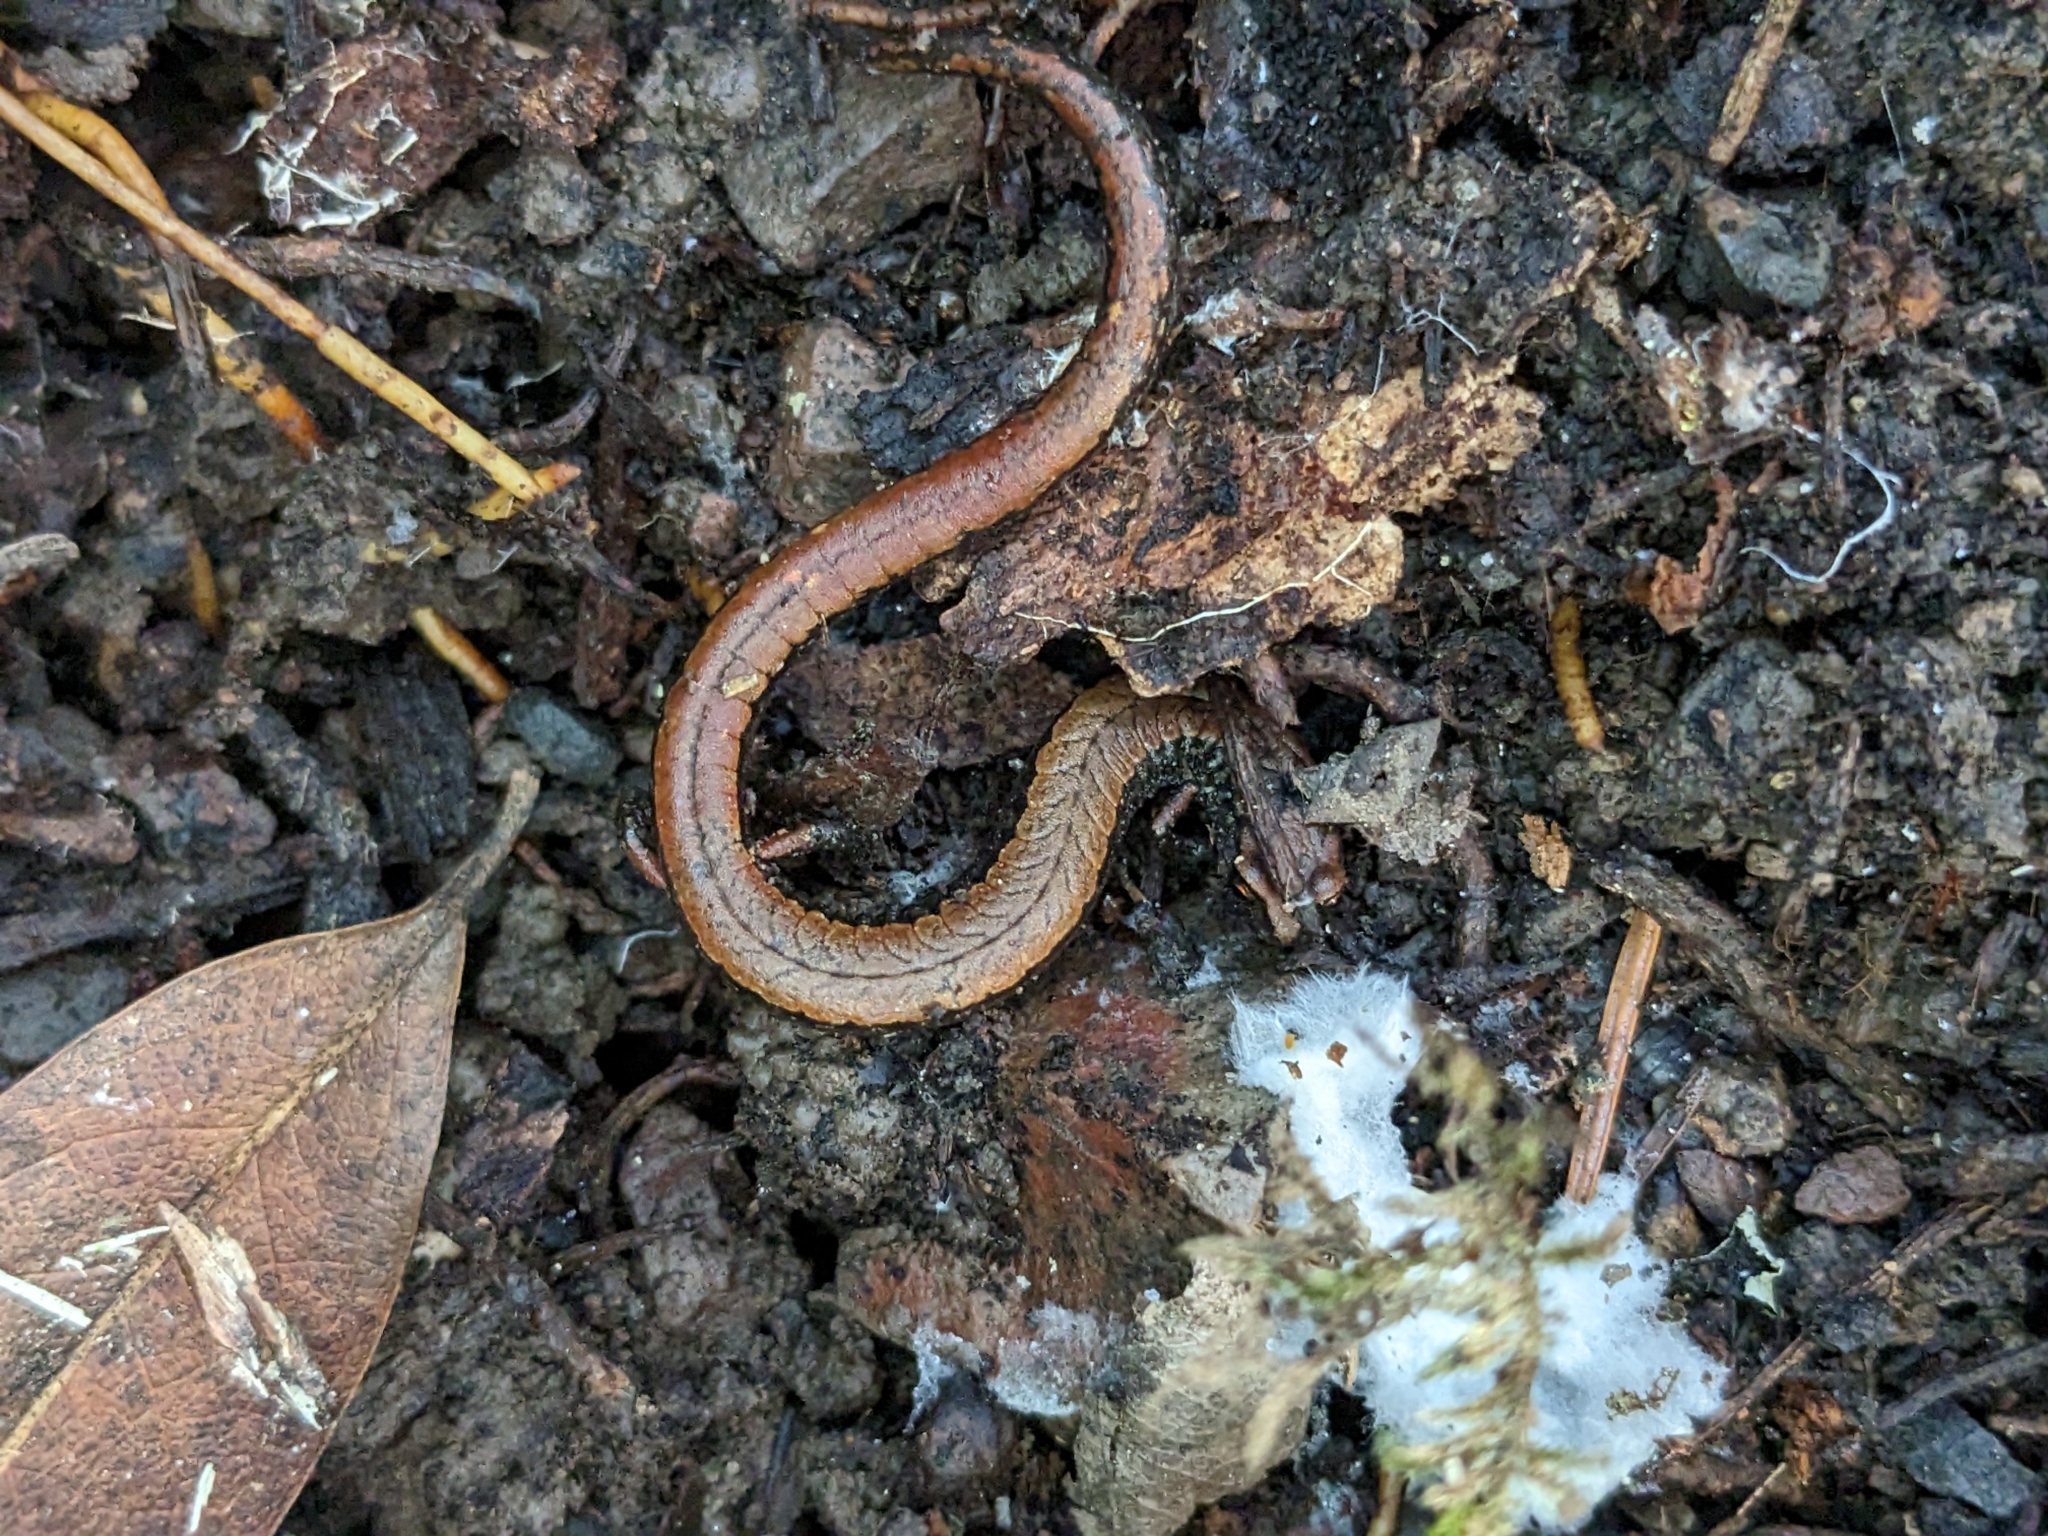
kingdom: Animalia
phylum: Chordata
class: Amphibia
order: Caudata
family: Plethodontidae
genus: Batrachoseps
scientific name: Batrachoseps attenuatus
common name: California slender salamander
